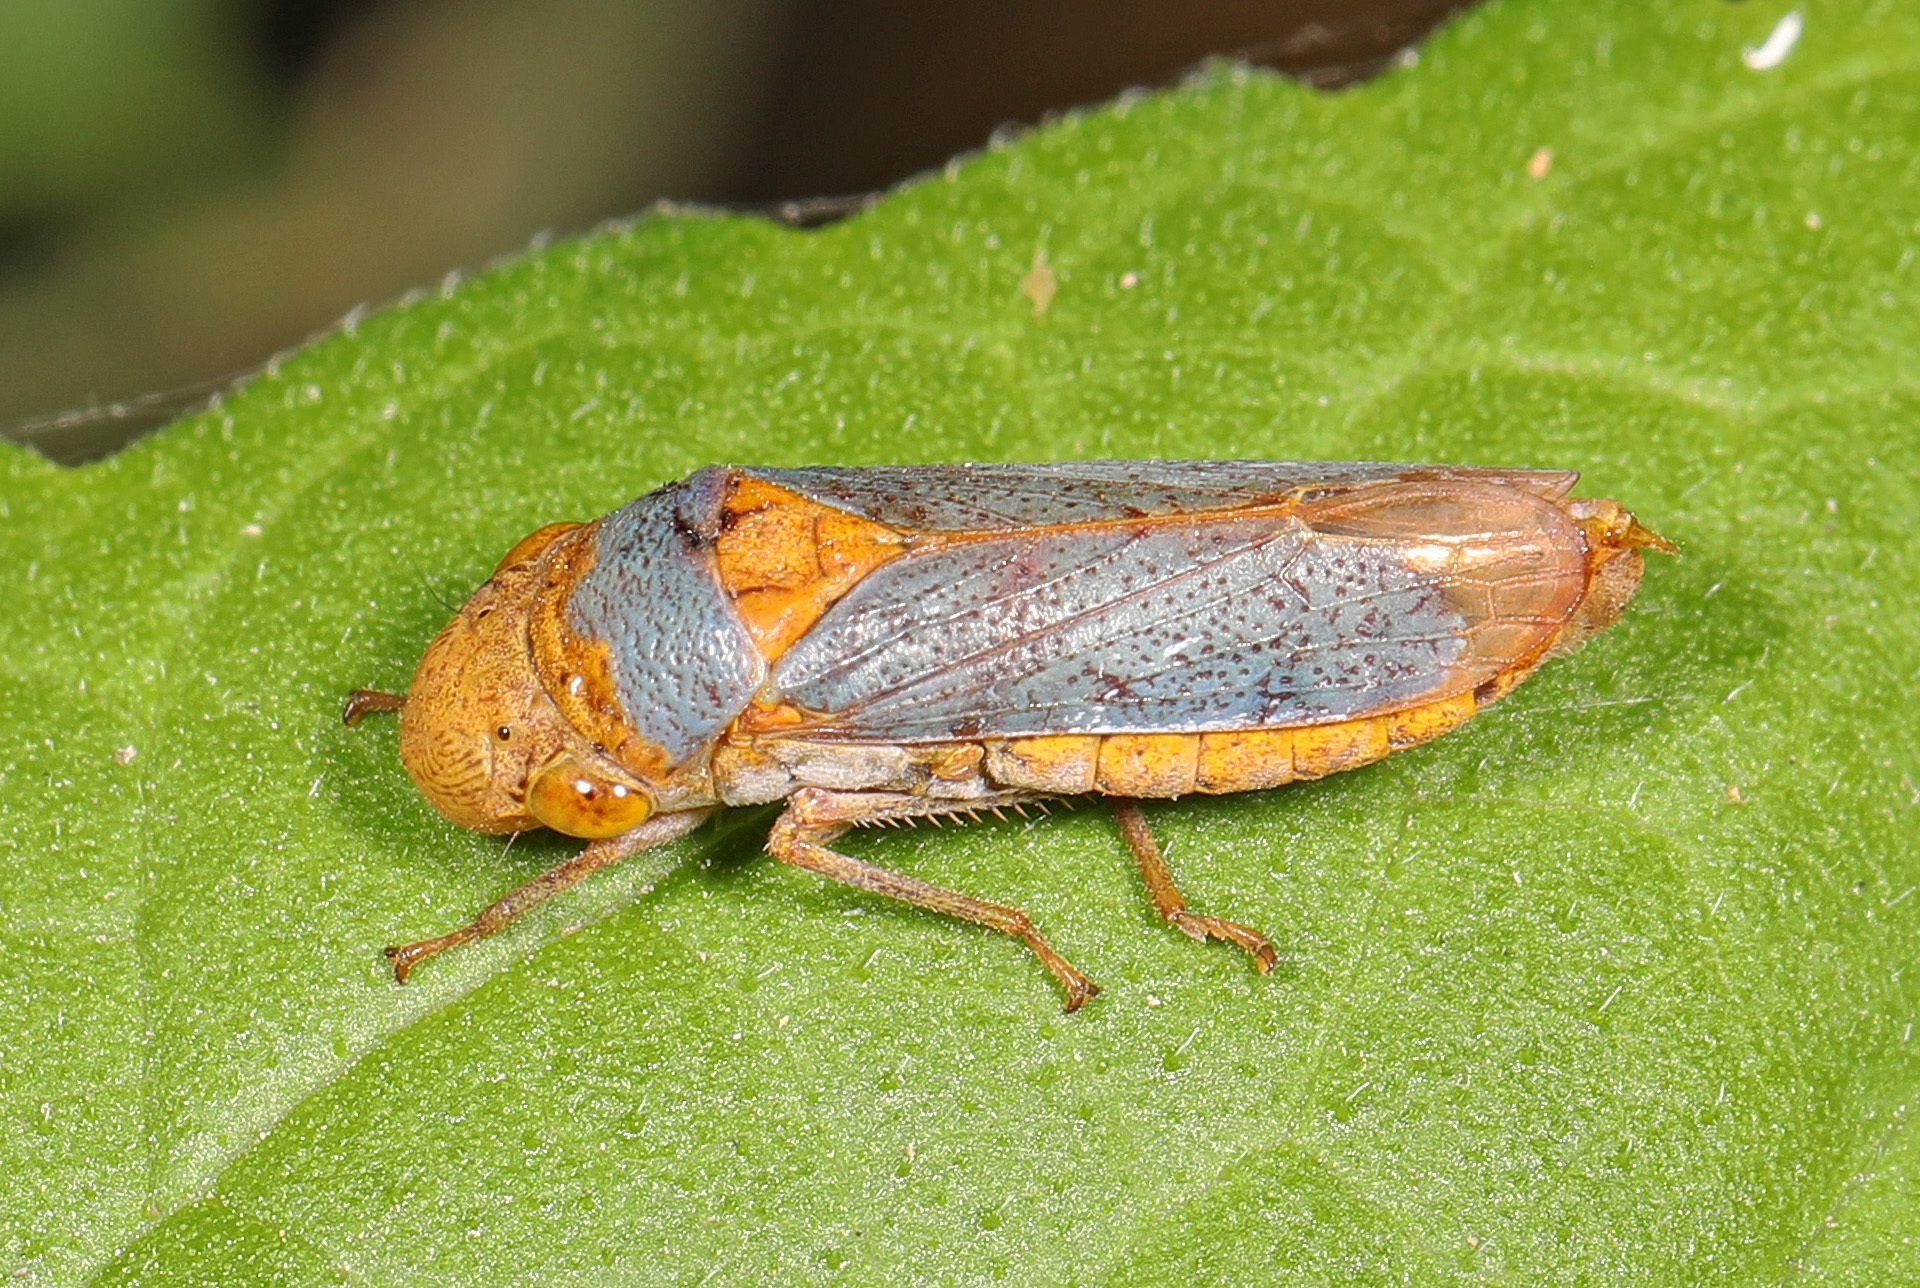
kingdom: Animalia
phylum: Arthropoda
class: Insecta
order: Hemiptera
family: Cicadellidae
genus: Oncometopia
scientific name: Oncometopia hamiltoni
